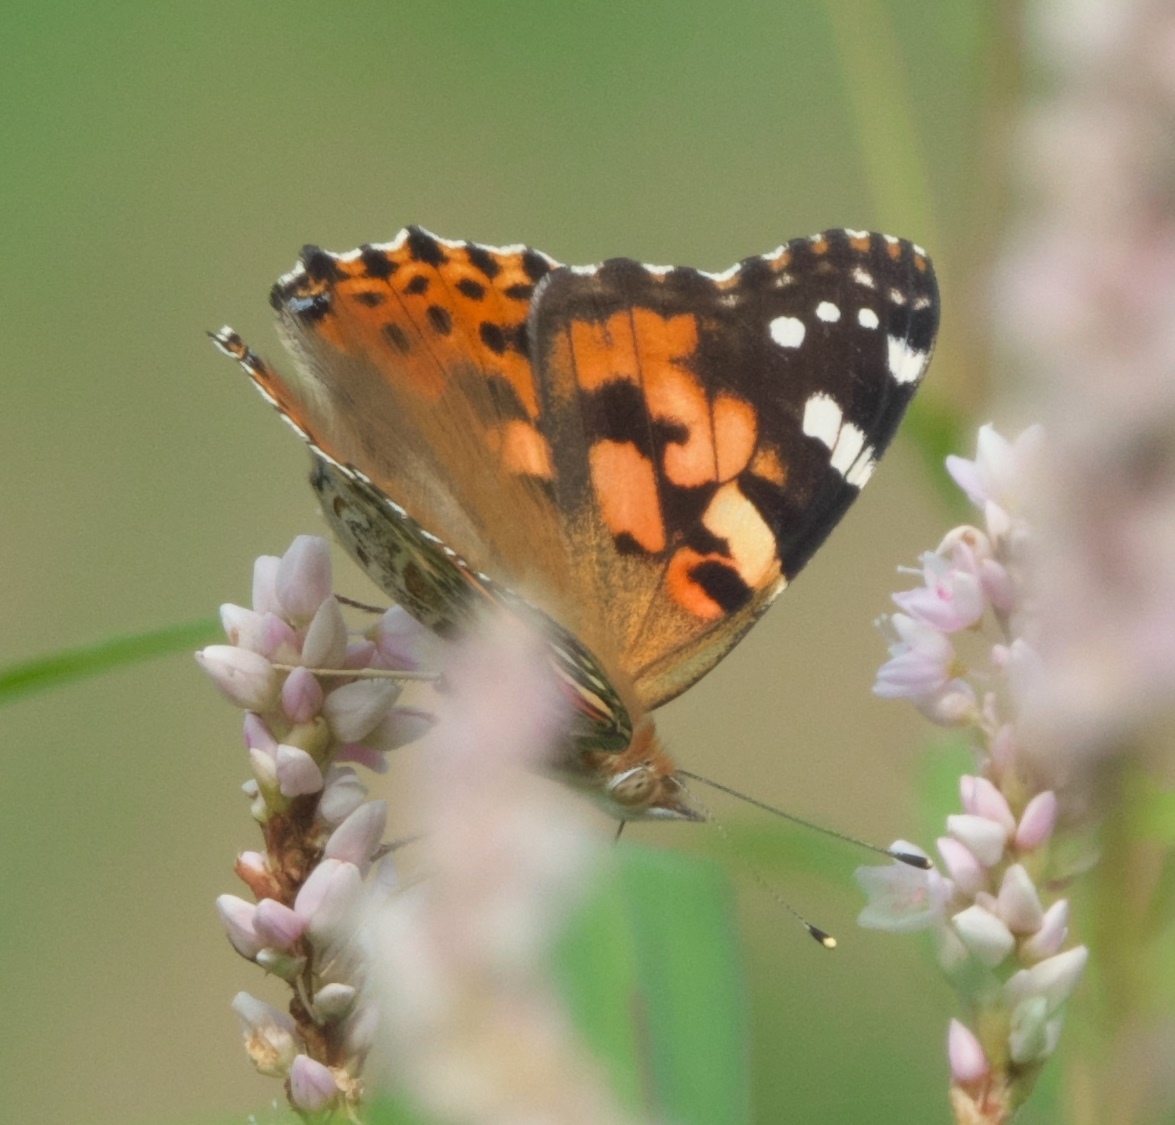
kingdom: Animalia
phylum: Arthropoda
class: Insecta
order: Lepidoptera
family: Nymphalidae
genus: Vanessa
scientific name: Vanessa cardui
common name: Painted lady
